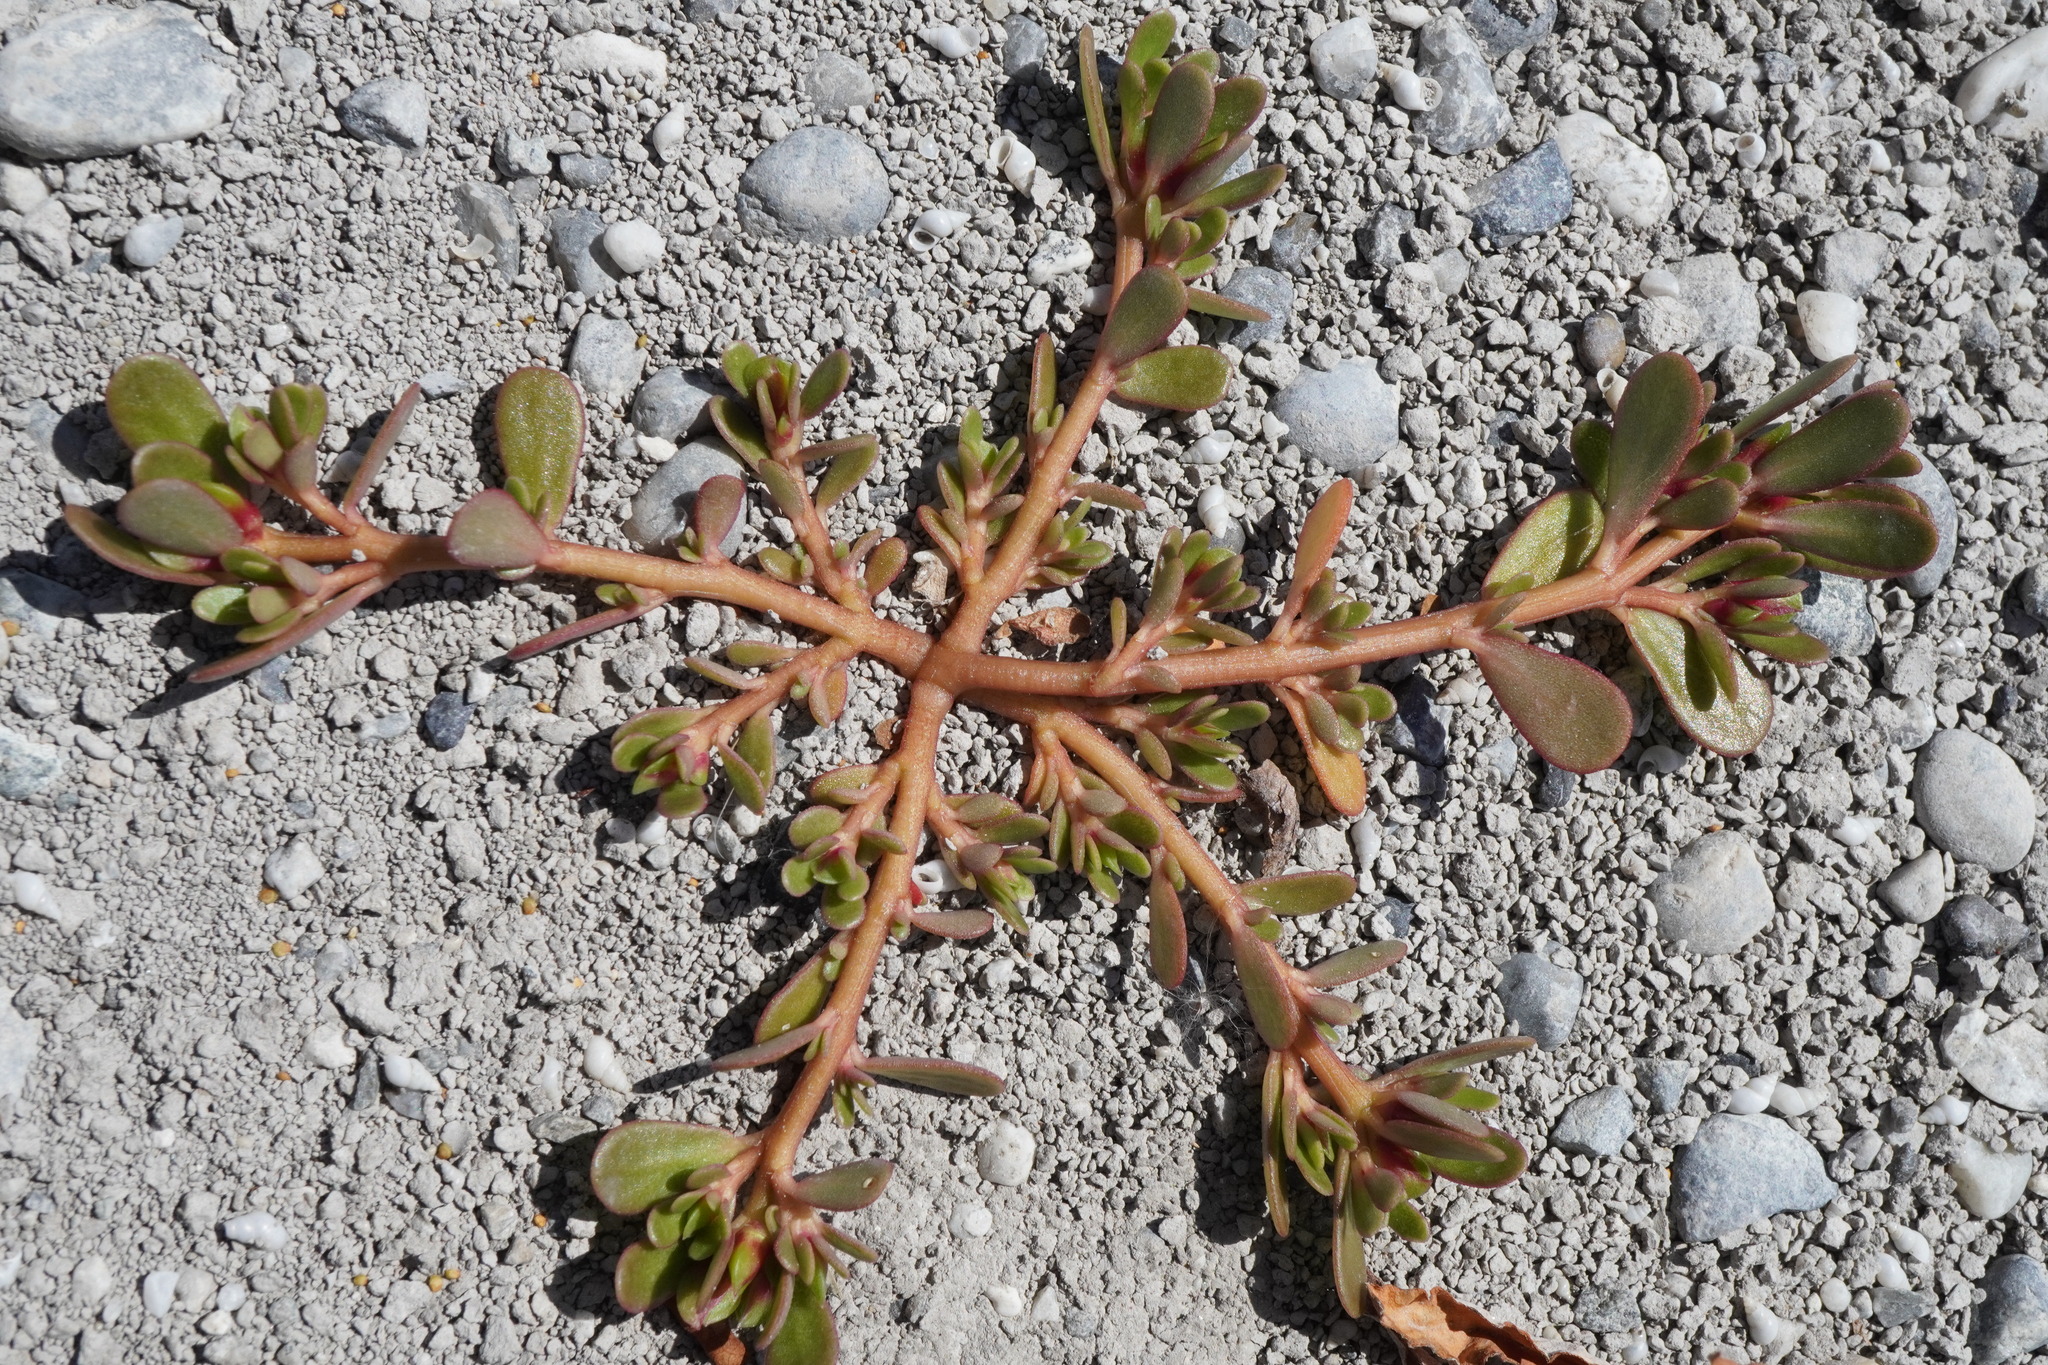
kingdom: Plantae
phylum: Tracheophyta
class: Magnoliopsida
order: Caryophyllales
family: Portulacaceae
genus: Portulaca
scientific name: Portulaca oleracea
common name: Common purslane
